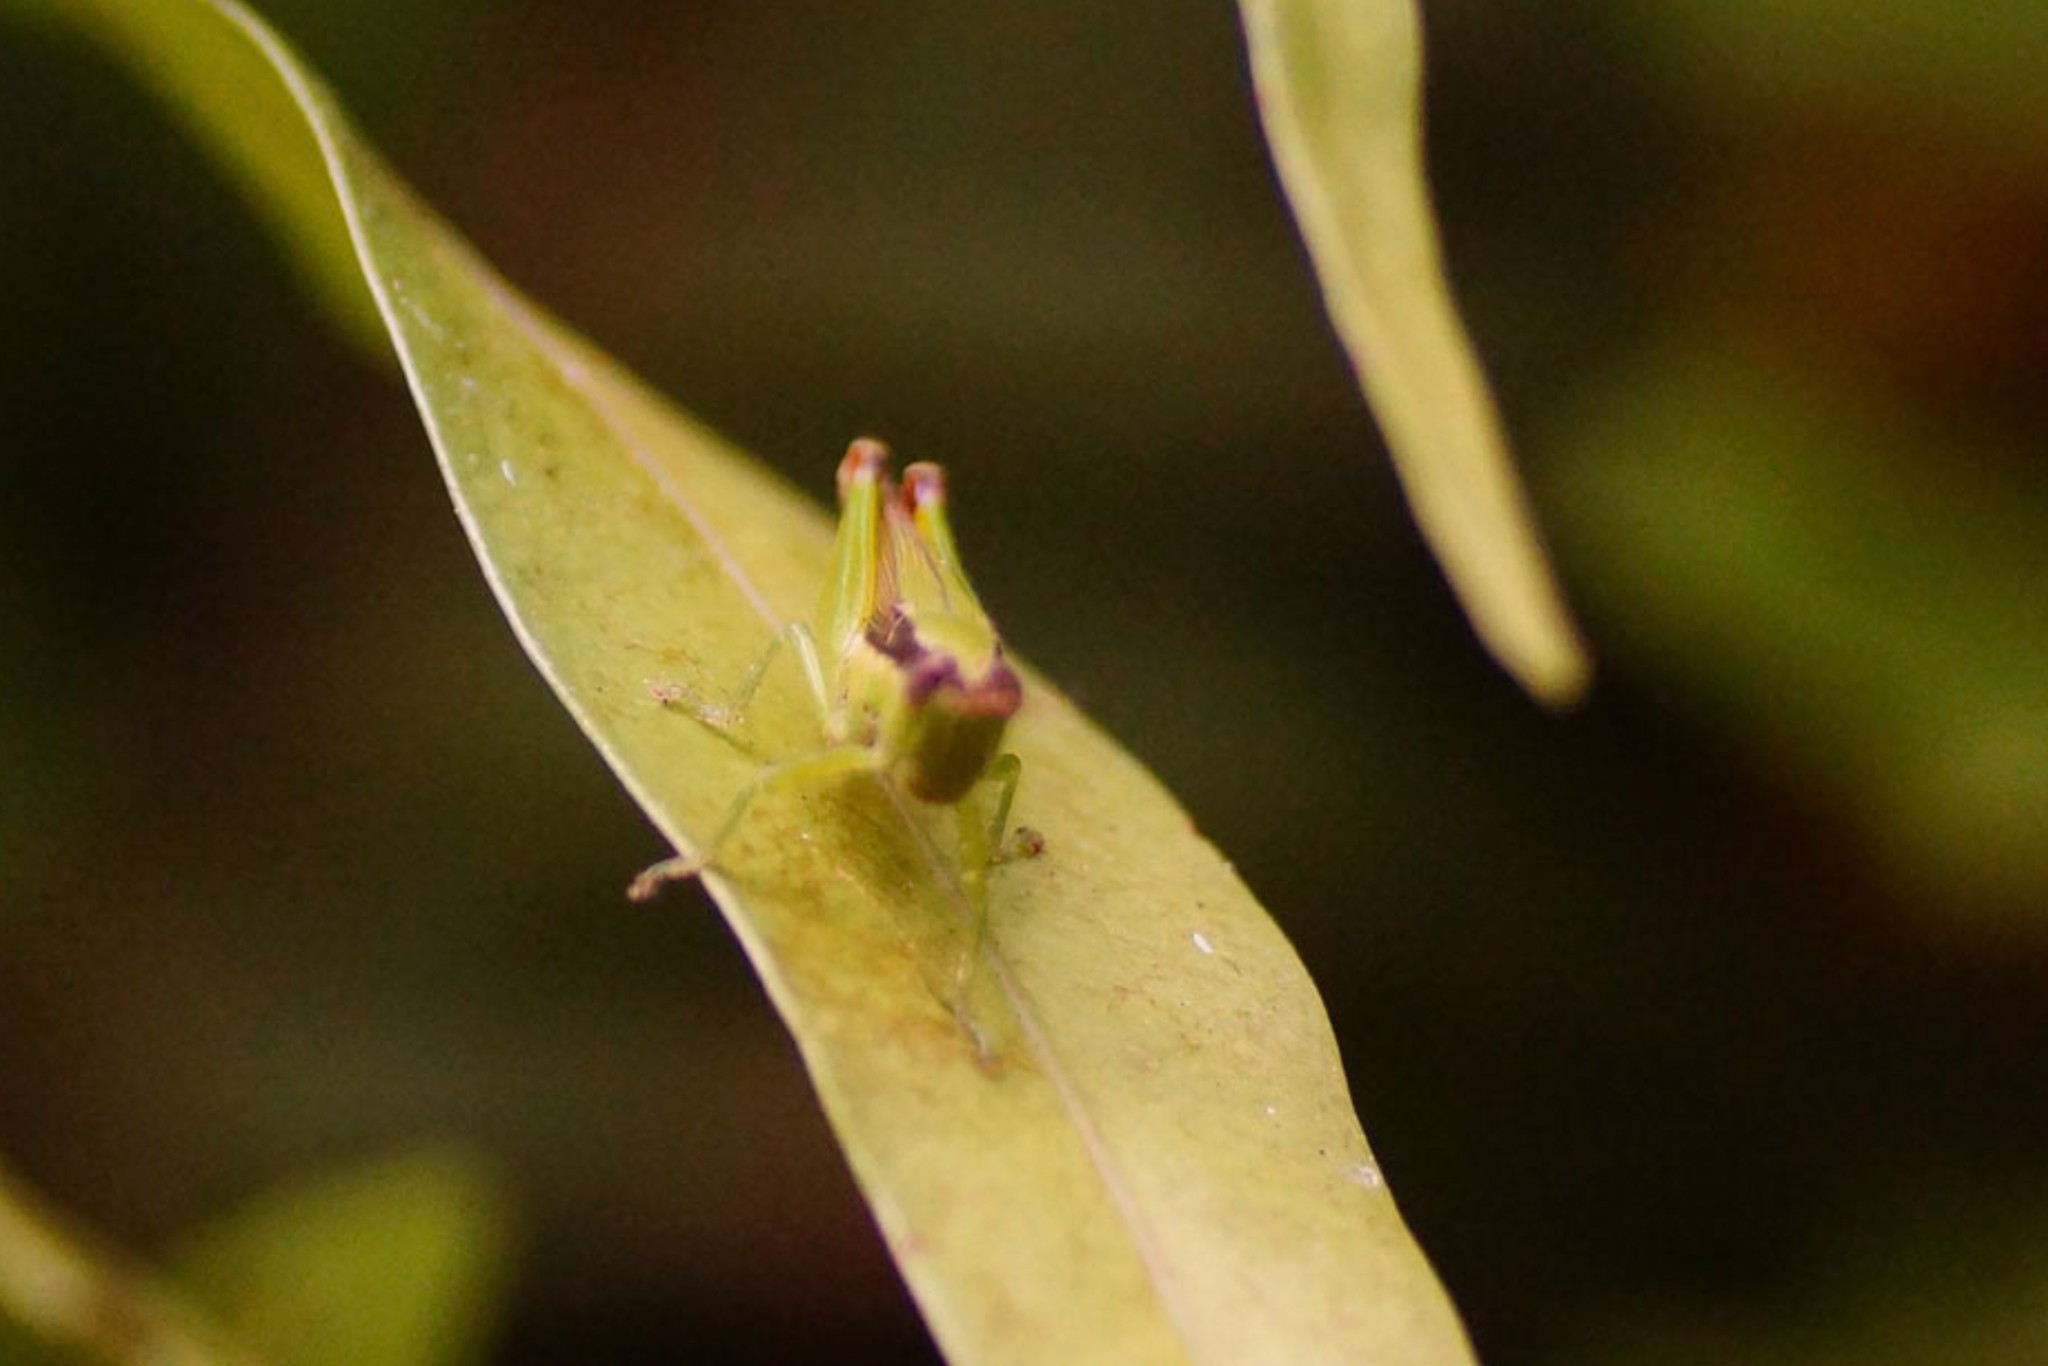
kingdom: Animalia
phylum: Arthropoda
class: Insecta
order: Orthoptera
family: Acrididae
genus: Gesonula
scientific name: Gesonula mundata
